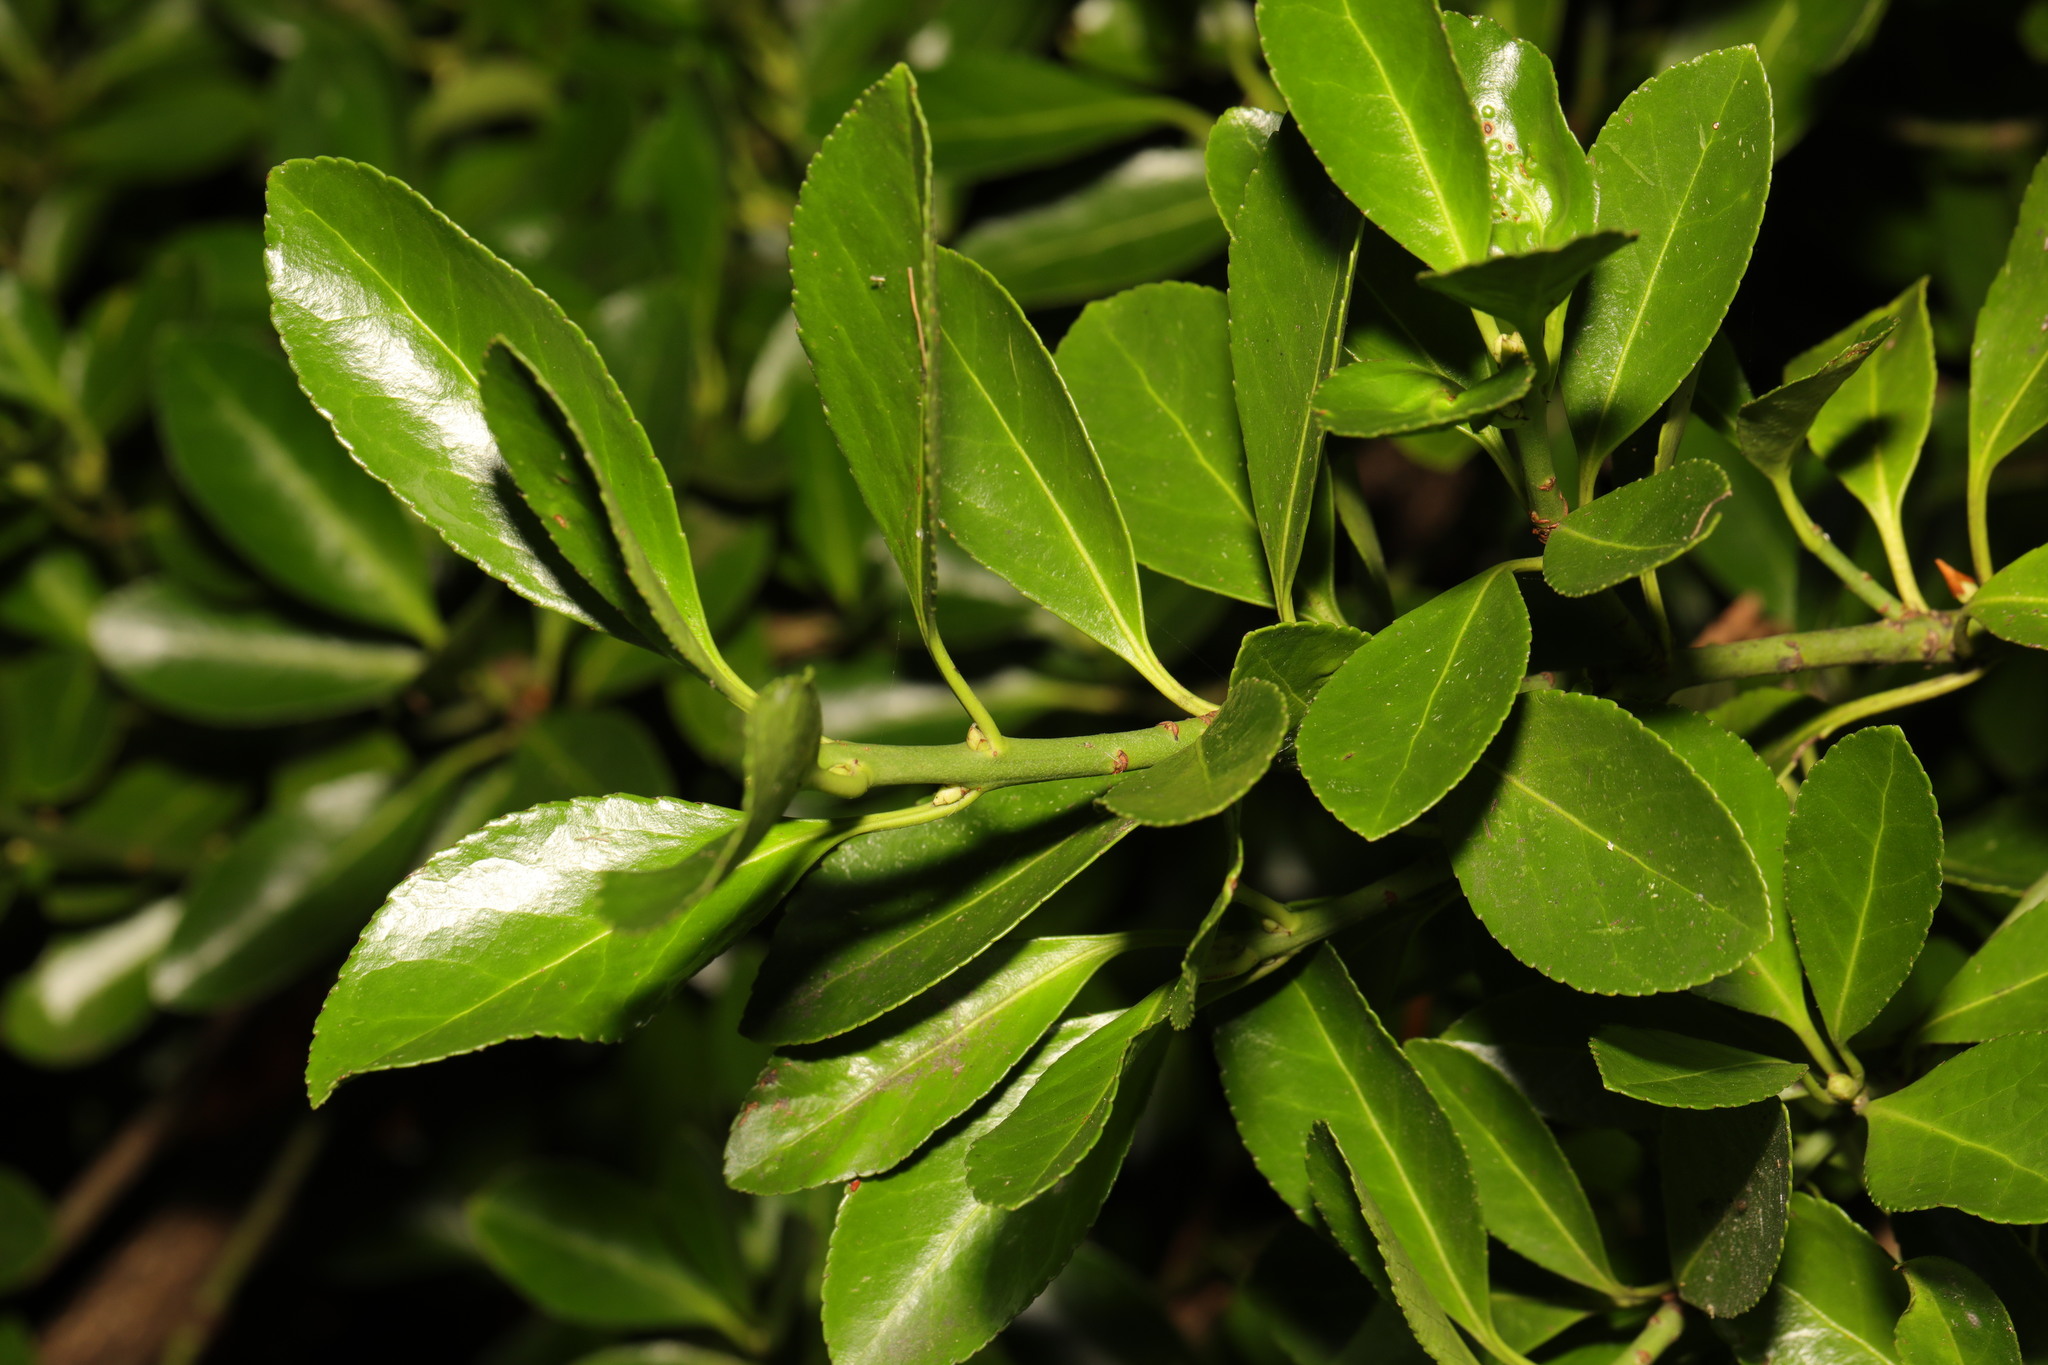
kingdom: Plantae
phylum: Tracheophyta
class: Magnoliopsida
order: Celastrales
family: Celastraceae
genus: Euonymus
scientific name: Euonymus japonicus
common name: Japanese spindletree
